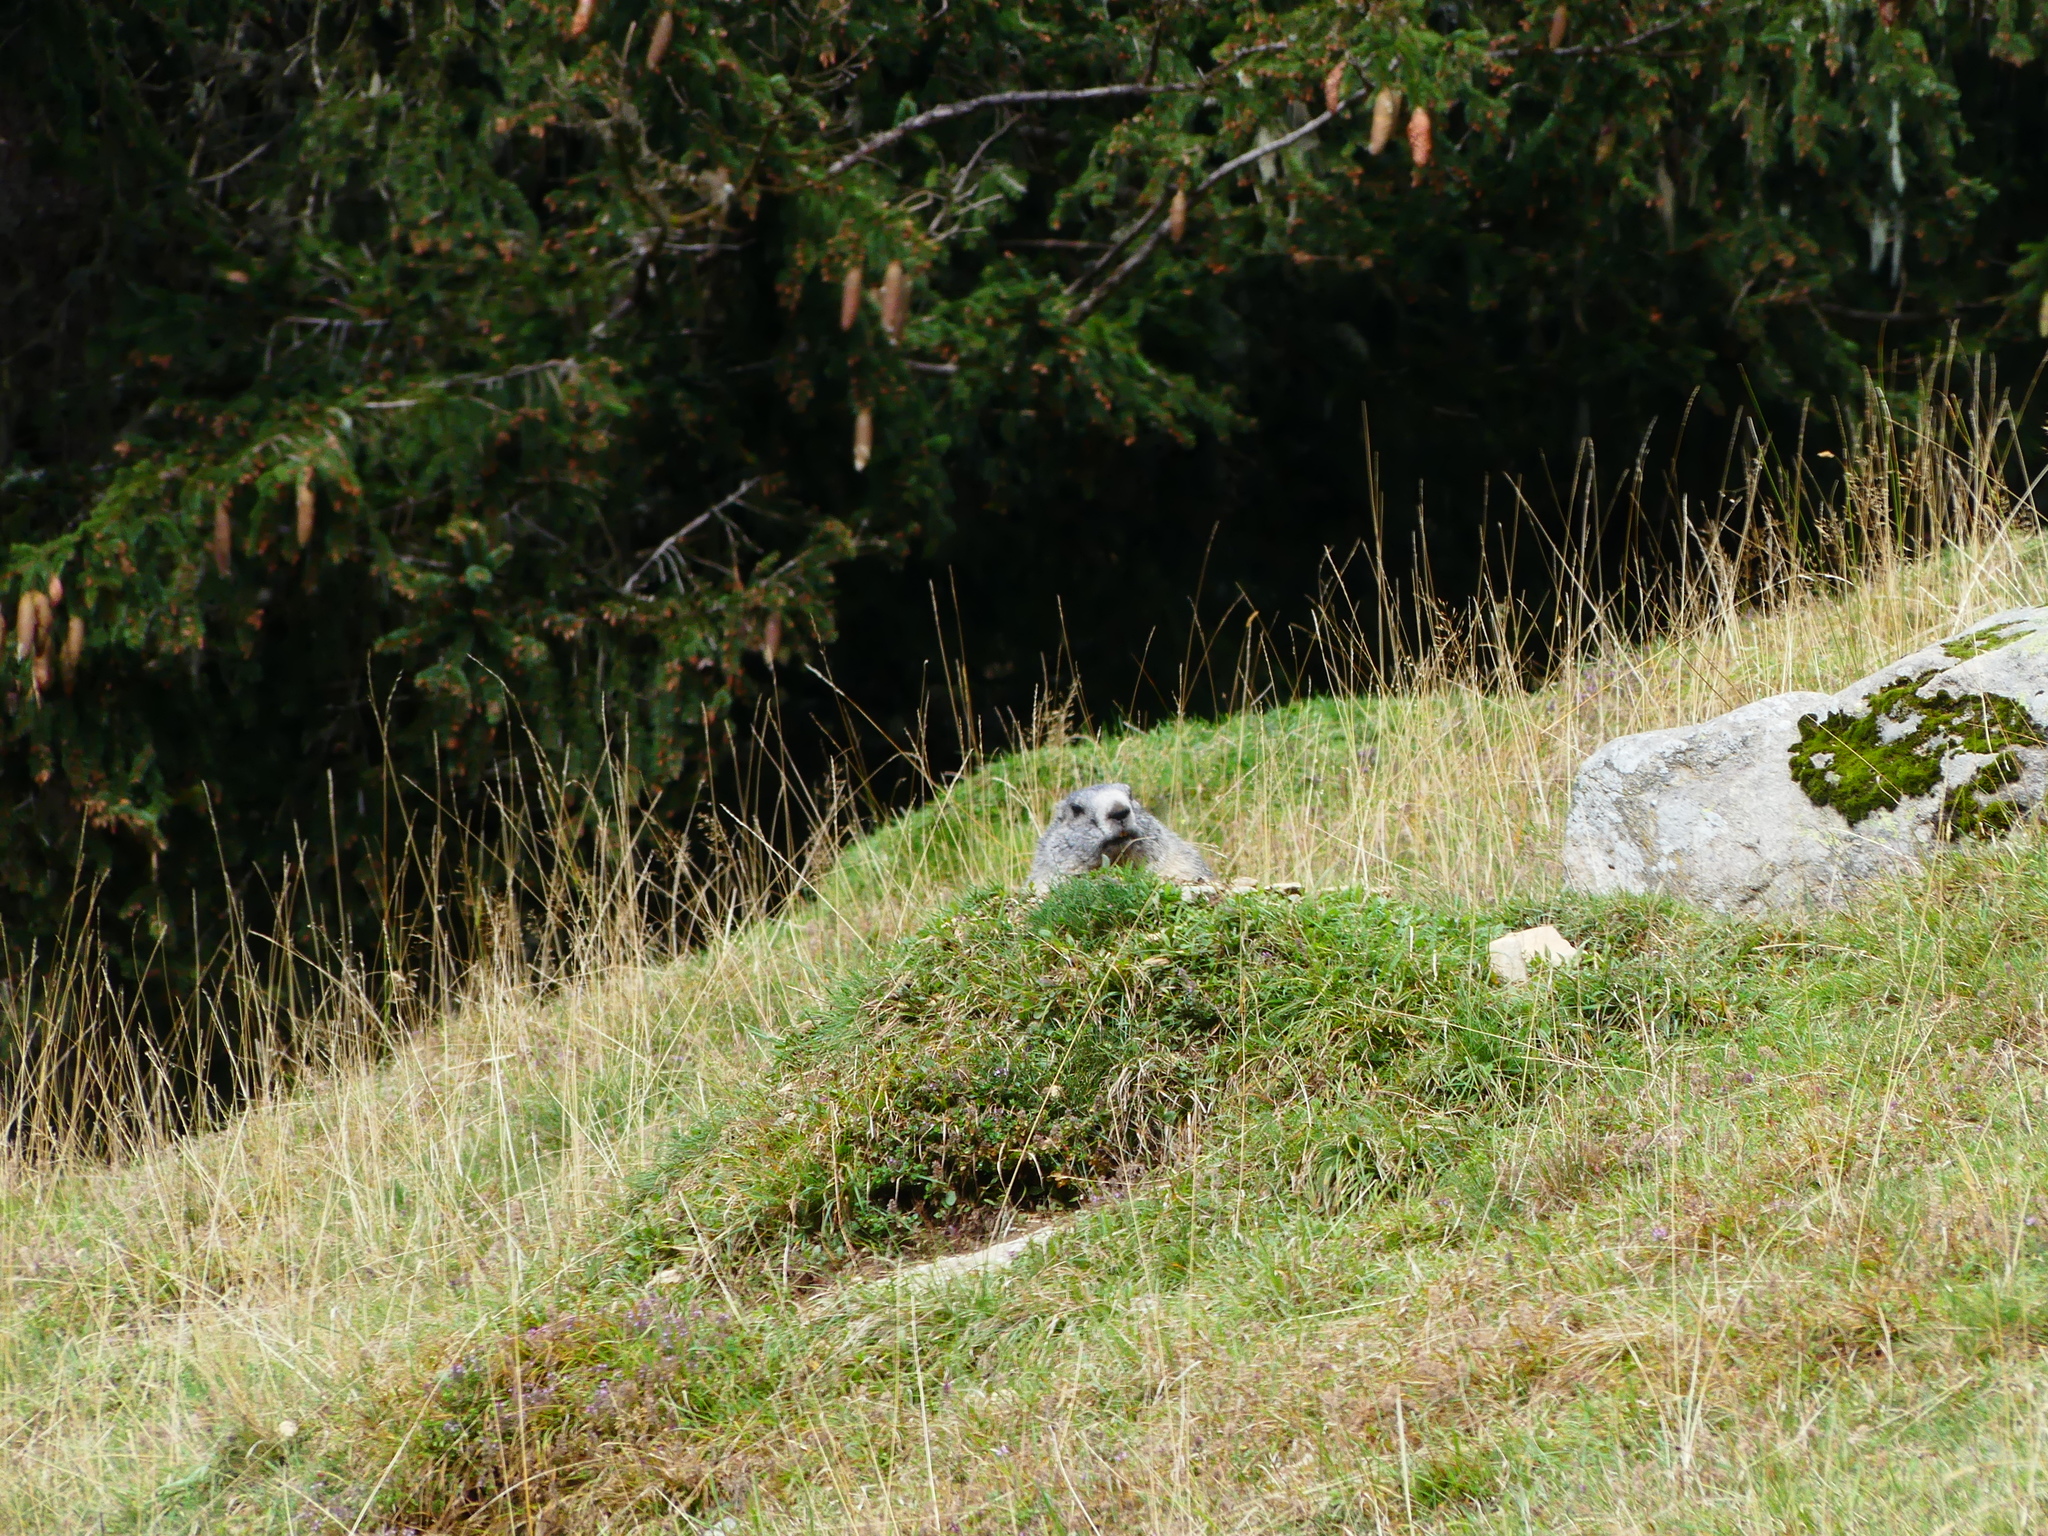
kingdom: Animalia
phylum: Chordata
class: Mammalia
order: Rodentia
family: Sciuridae
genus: Marmota
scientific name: Marmota marmota
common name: Alpine marmot
